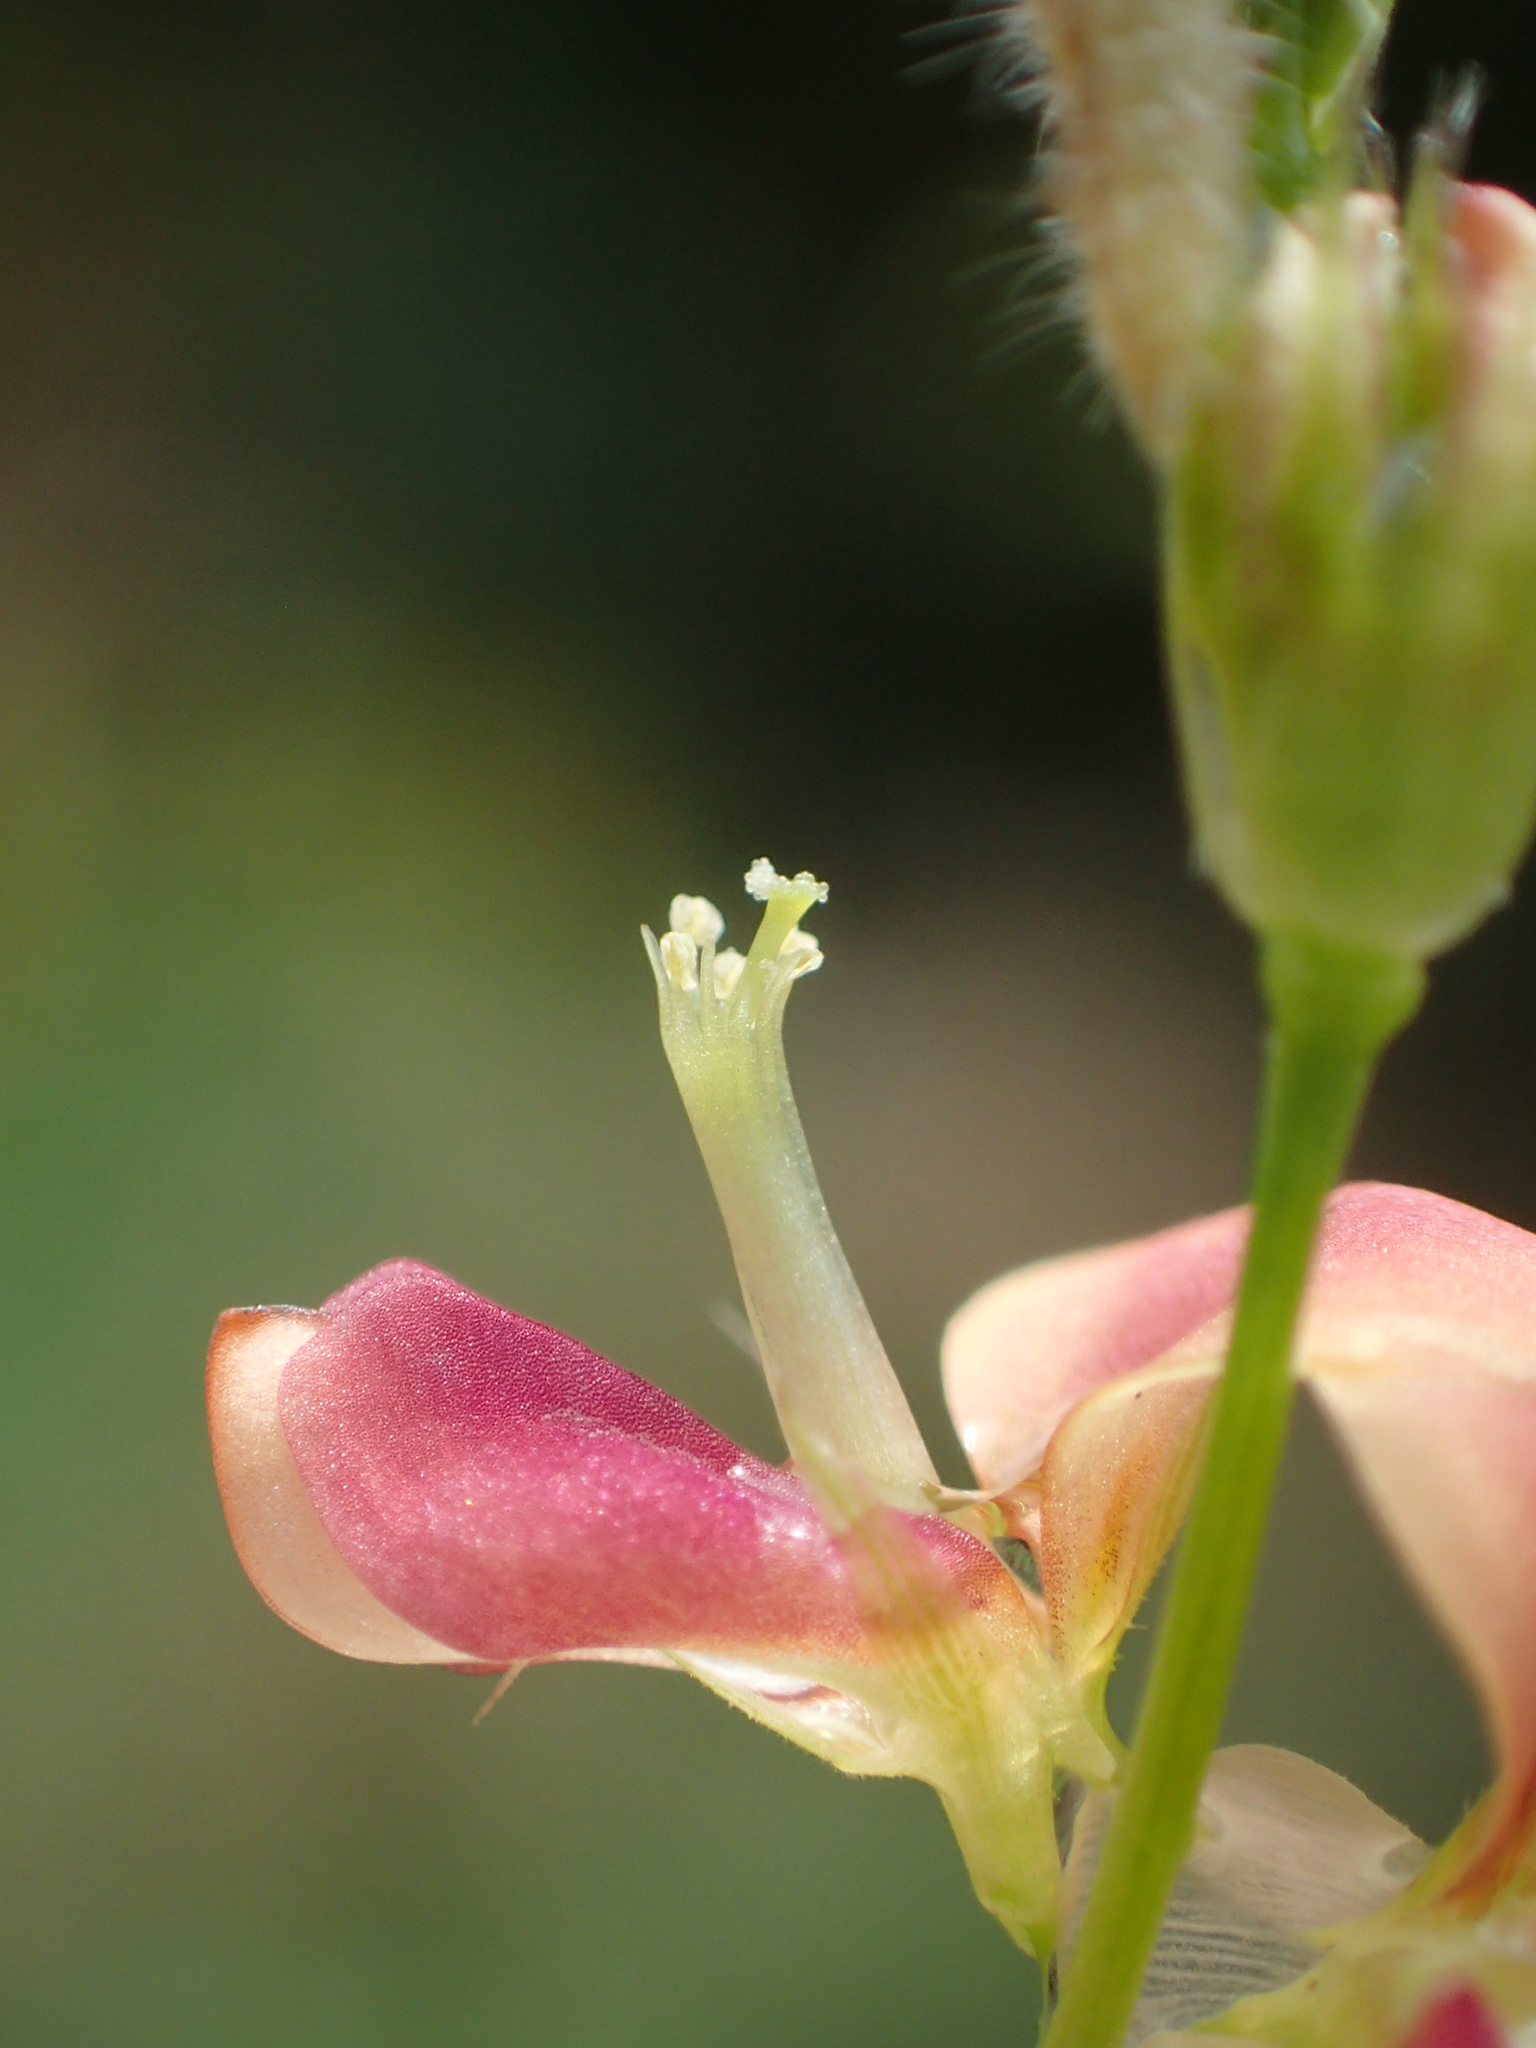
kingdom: Plantae
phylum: Tracheophyta
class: Magnoliopsida
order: Fabales
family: Fabaceae
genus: Alysicarpus
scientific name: Alysicarpus ovalifolius
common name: Alyce clover
